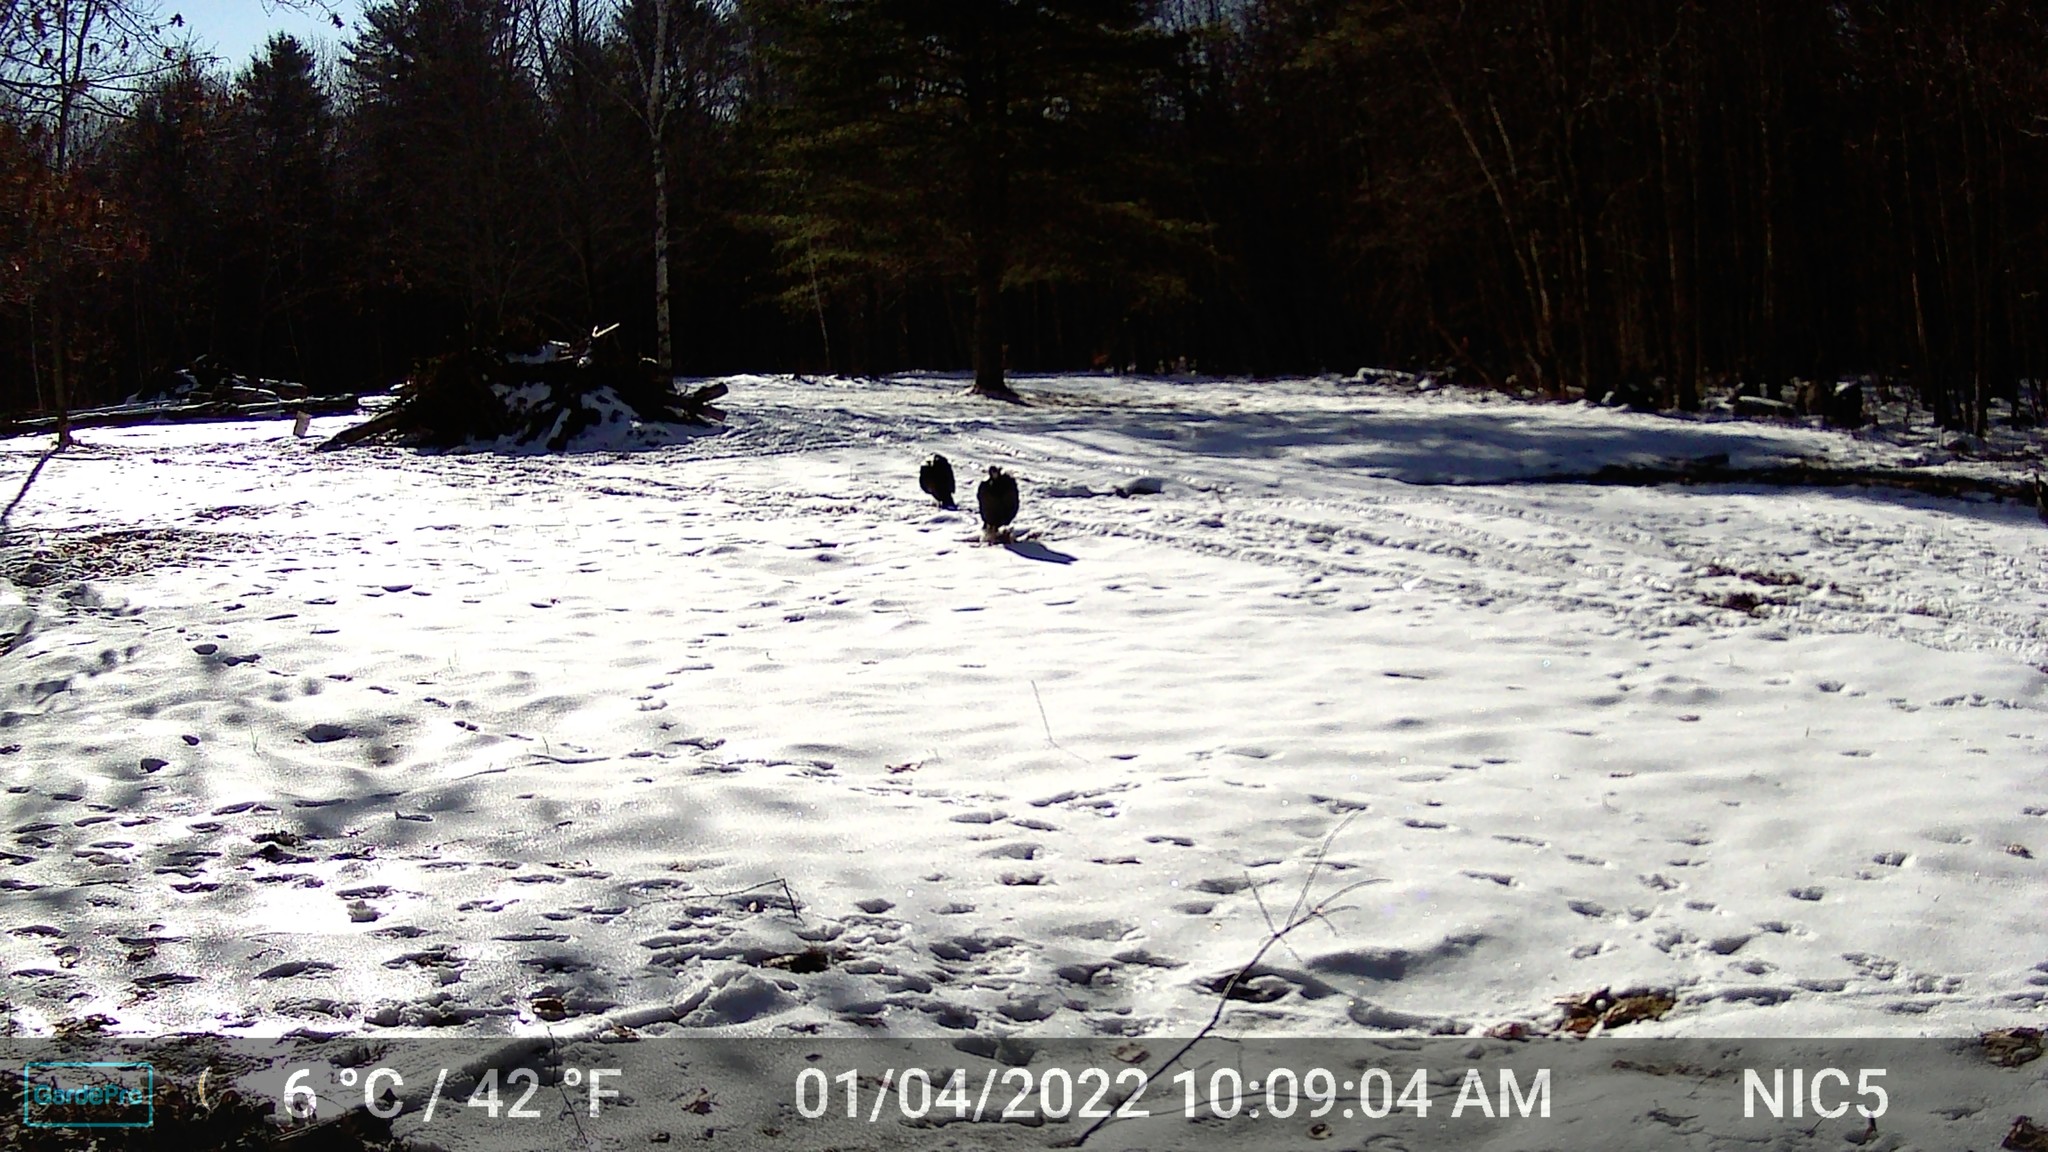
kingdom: Animalia
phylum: Chordata
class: Aves
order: Galliformes
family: Phasianidae
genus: Meleagris
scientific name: Meleagris gallopavo
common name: Wild turkey
